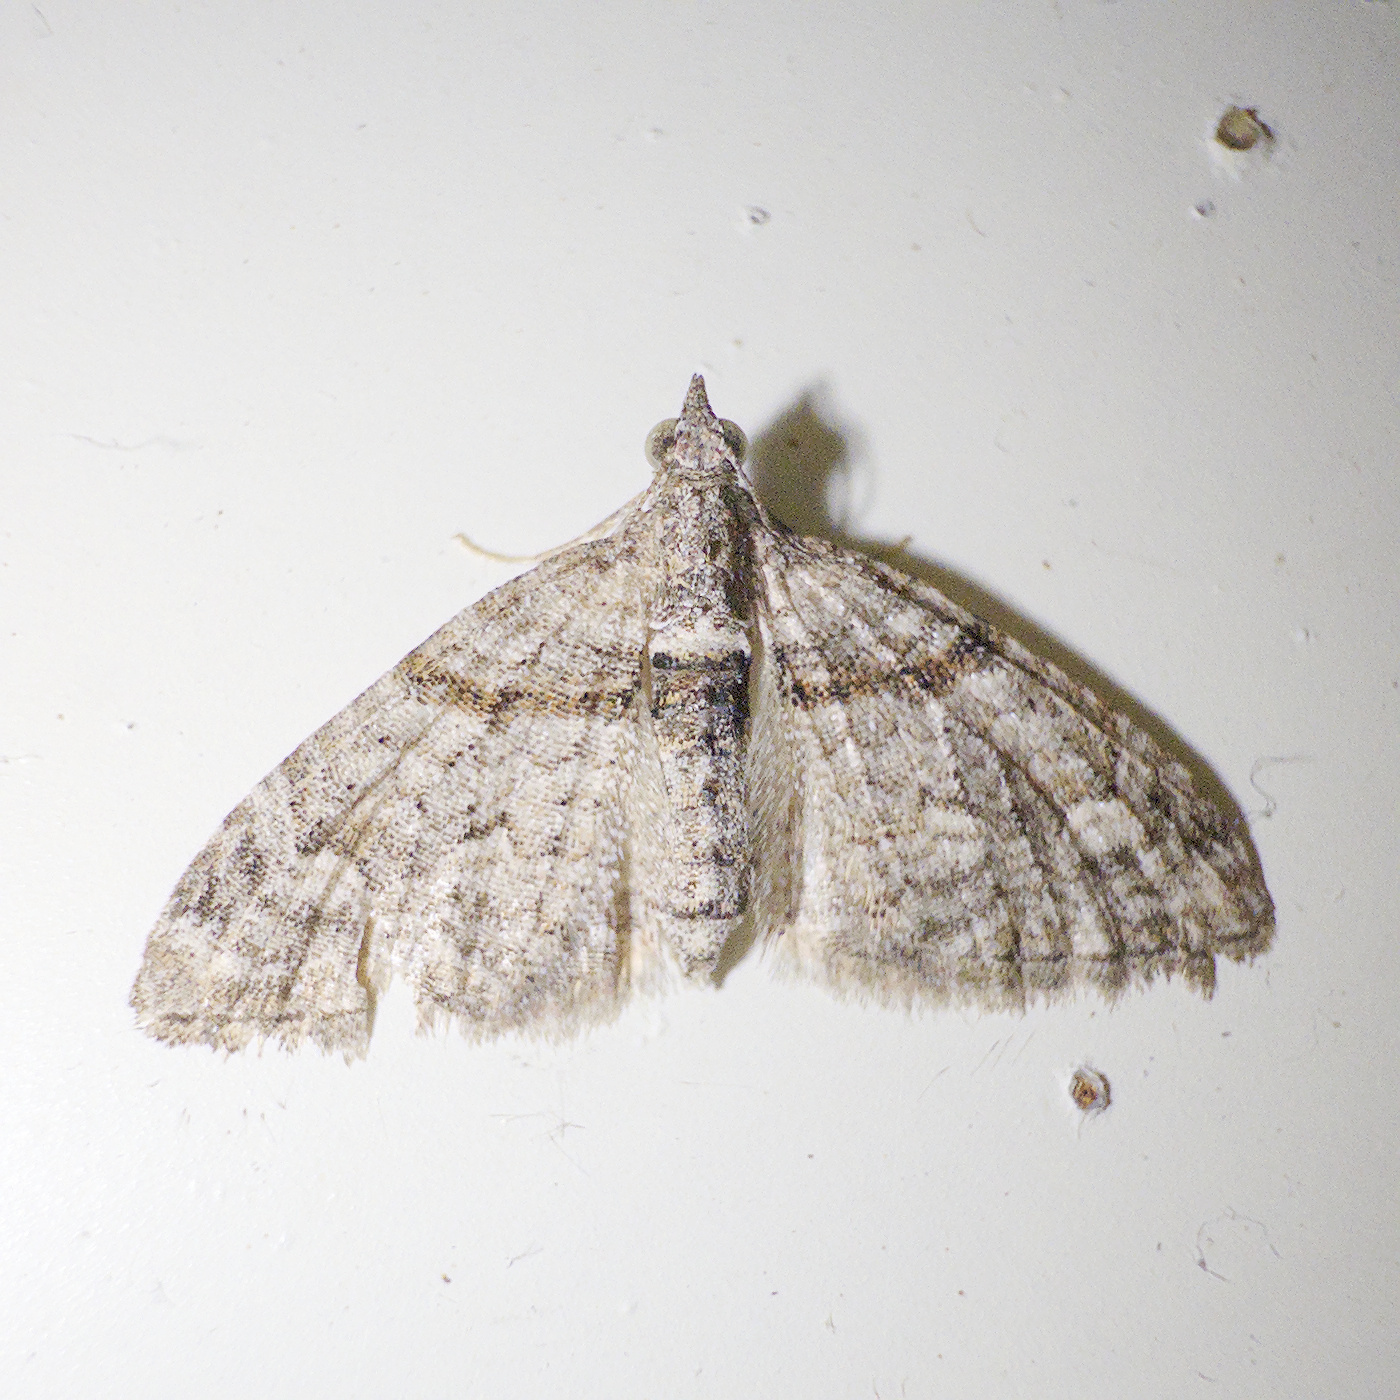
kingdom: Animalia
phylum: Arthropoda
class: Insecta
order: Lepidoptera
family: Geometridae
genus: Phrissogonus
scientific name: Phrissogonus laticostata
